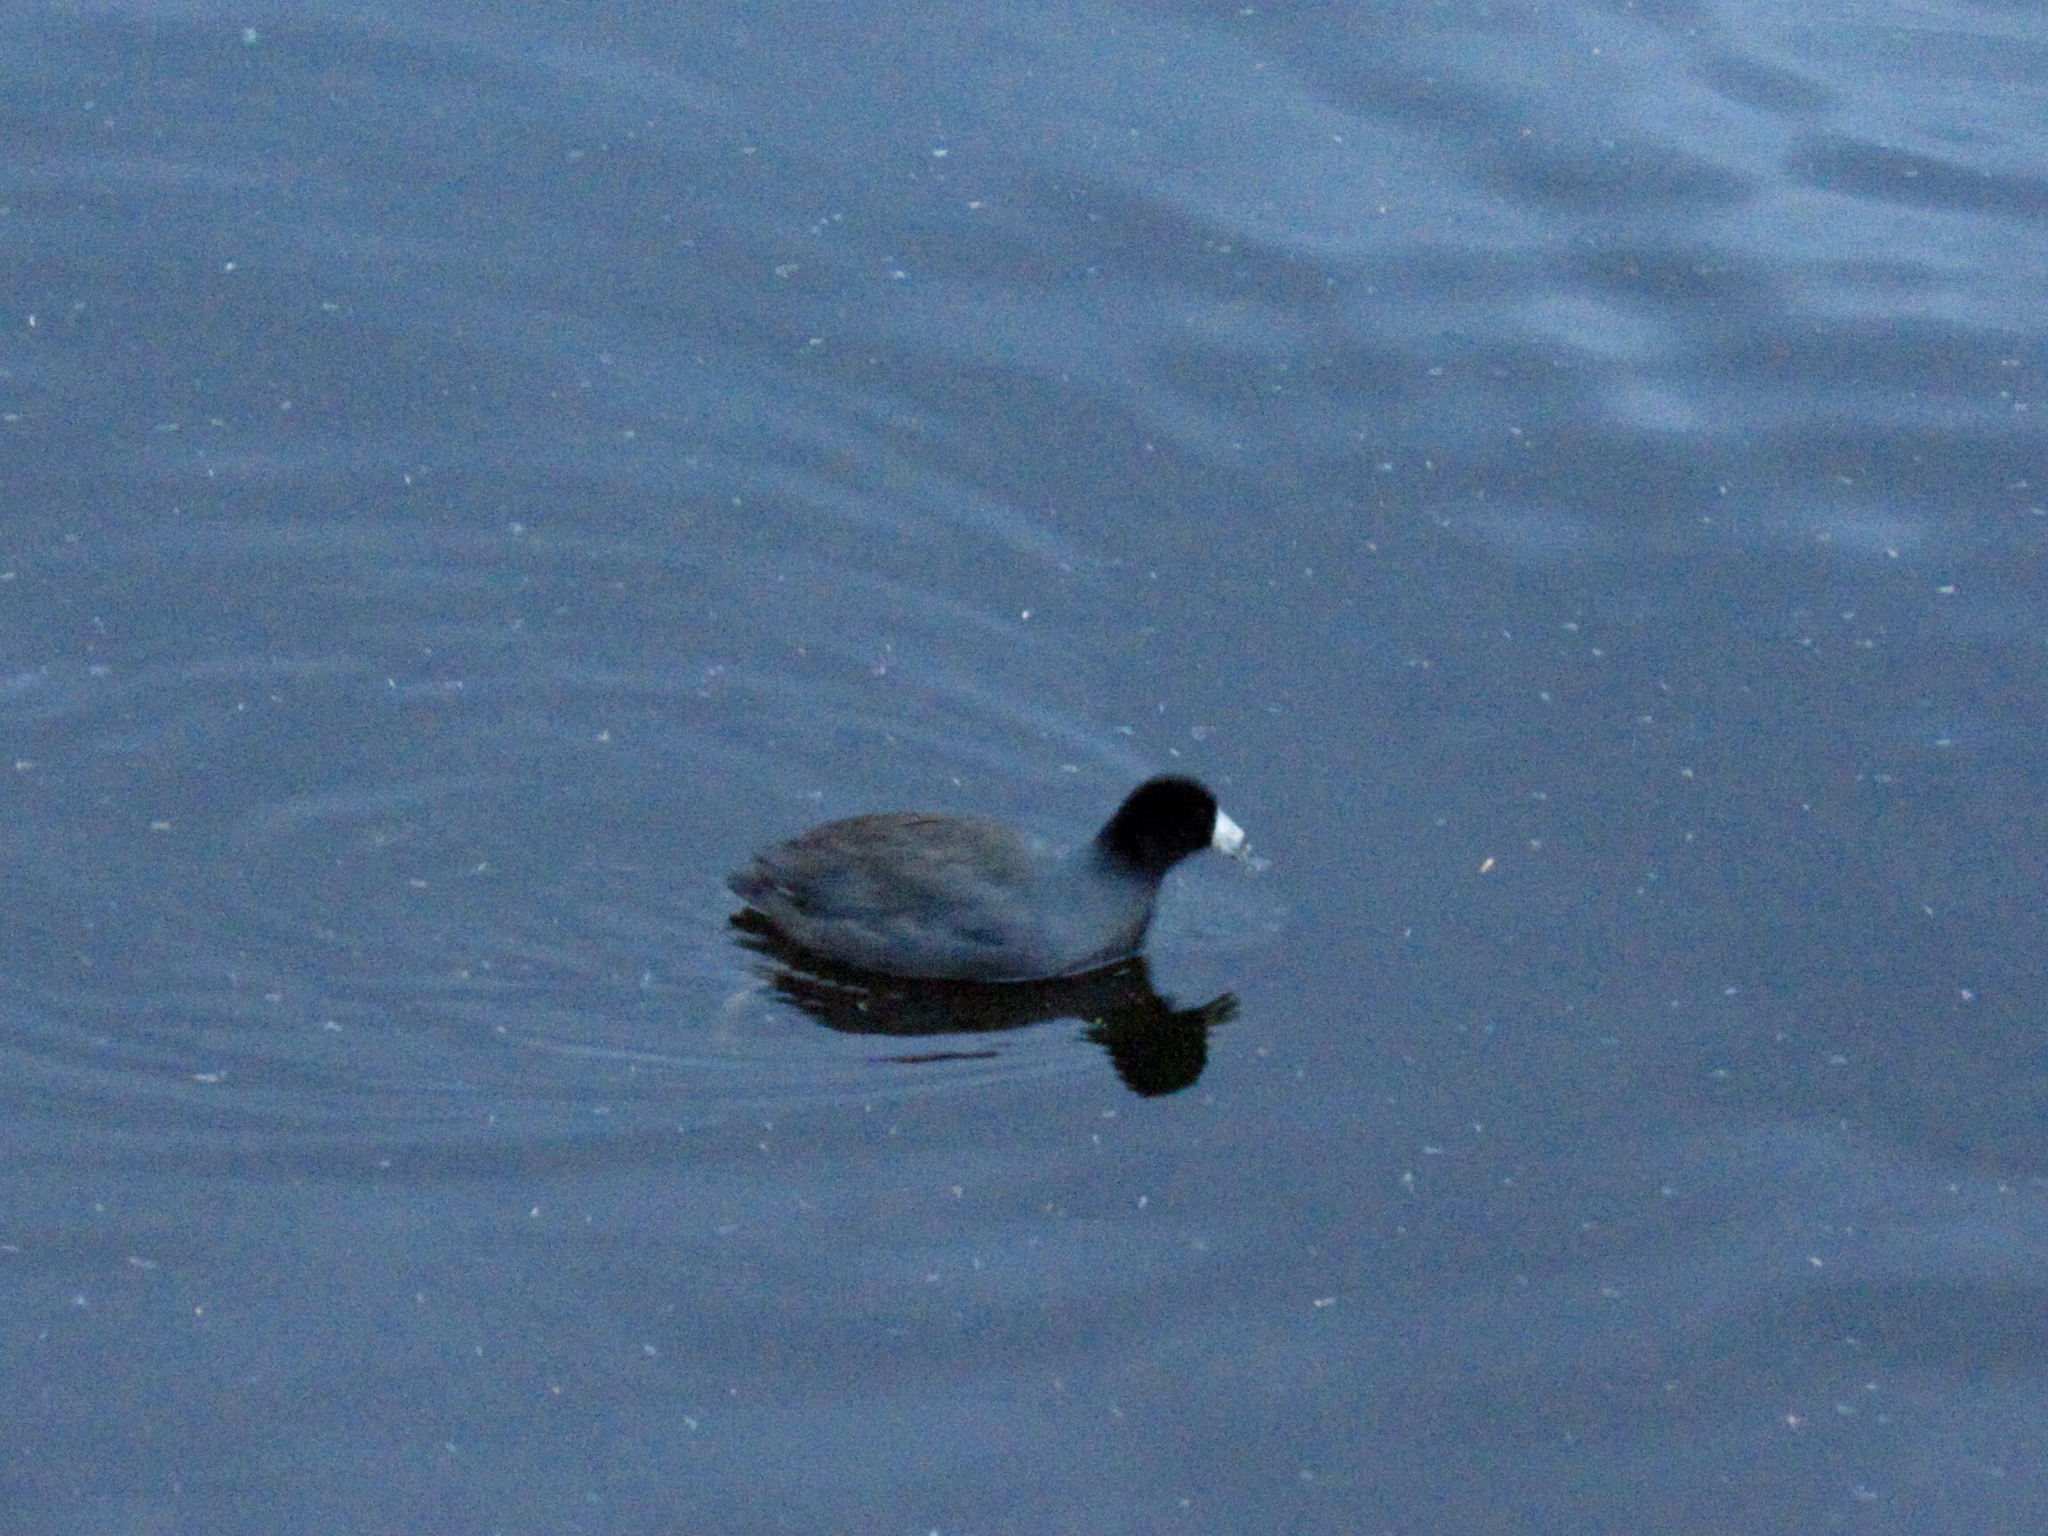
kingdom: Animalia
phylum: Chordata
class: Aves
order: Gruiformes
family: Rallidae
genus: Fulica
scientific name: Fulica americana
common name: American coot
